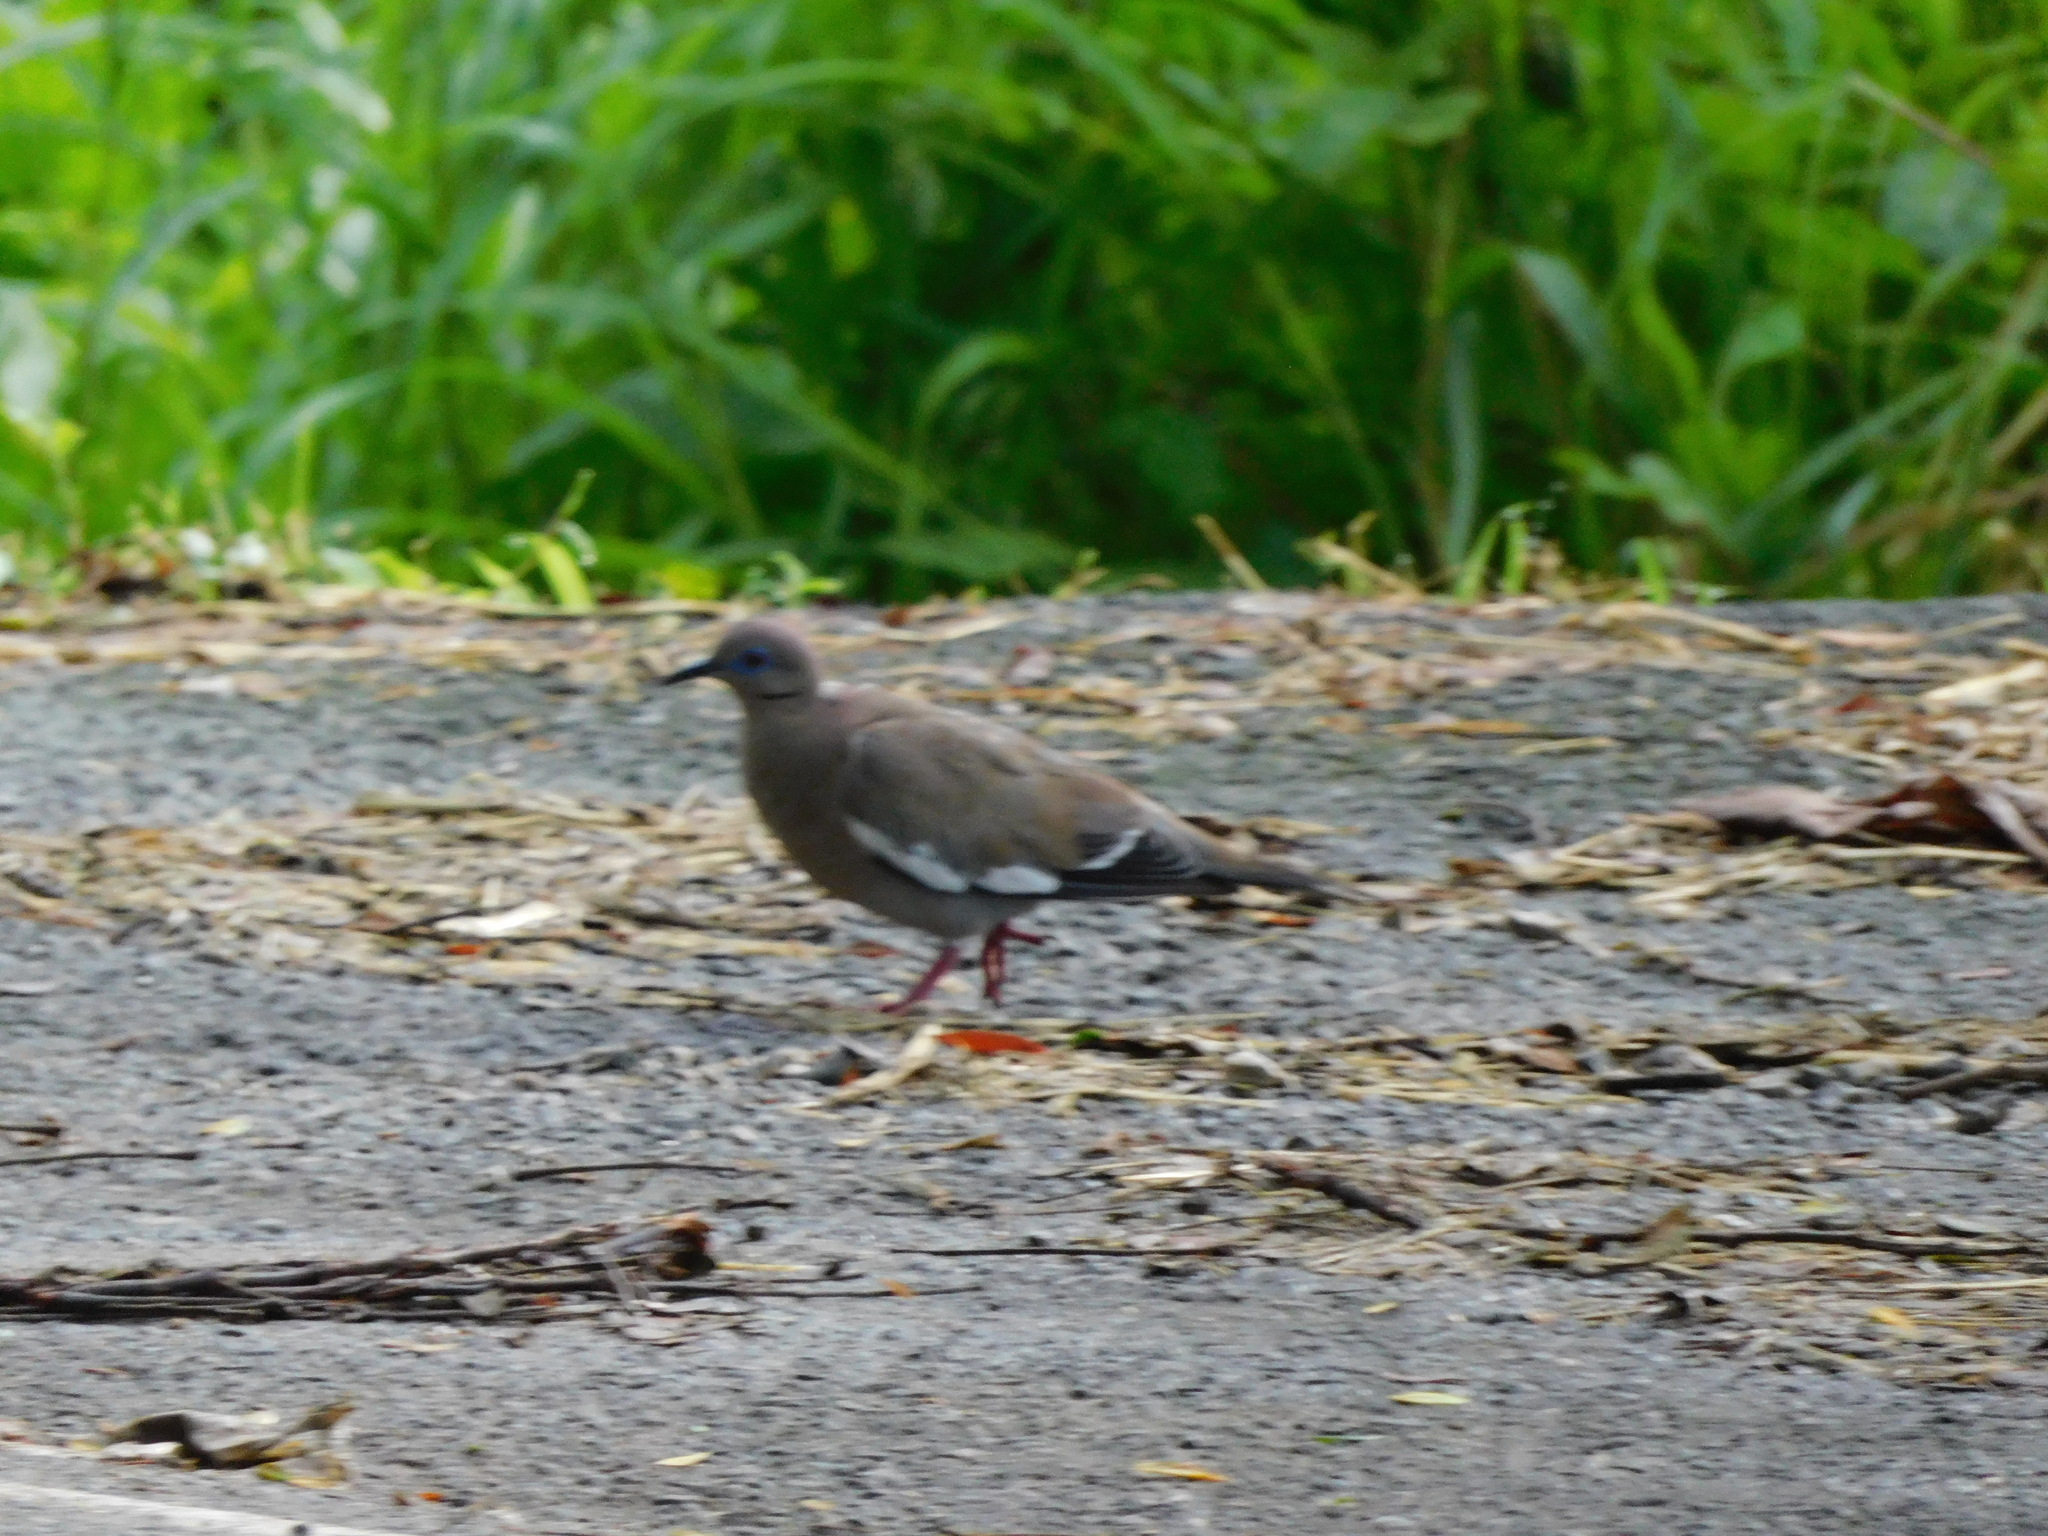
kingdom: Animalia
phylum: Chordata
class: Aves
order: Columbiformes
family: Columbidae
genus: Zenaida
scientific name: Zenaida asiatica
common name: White-winged dove
